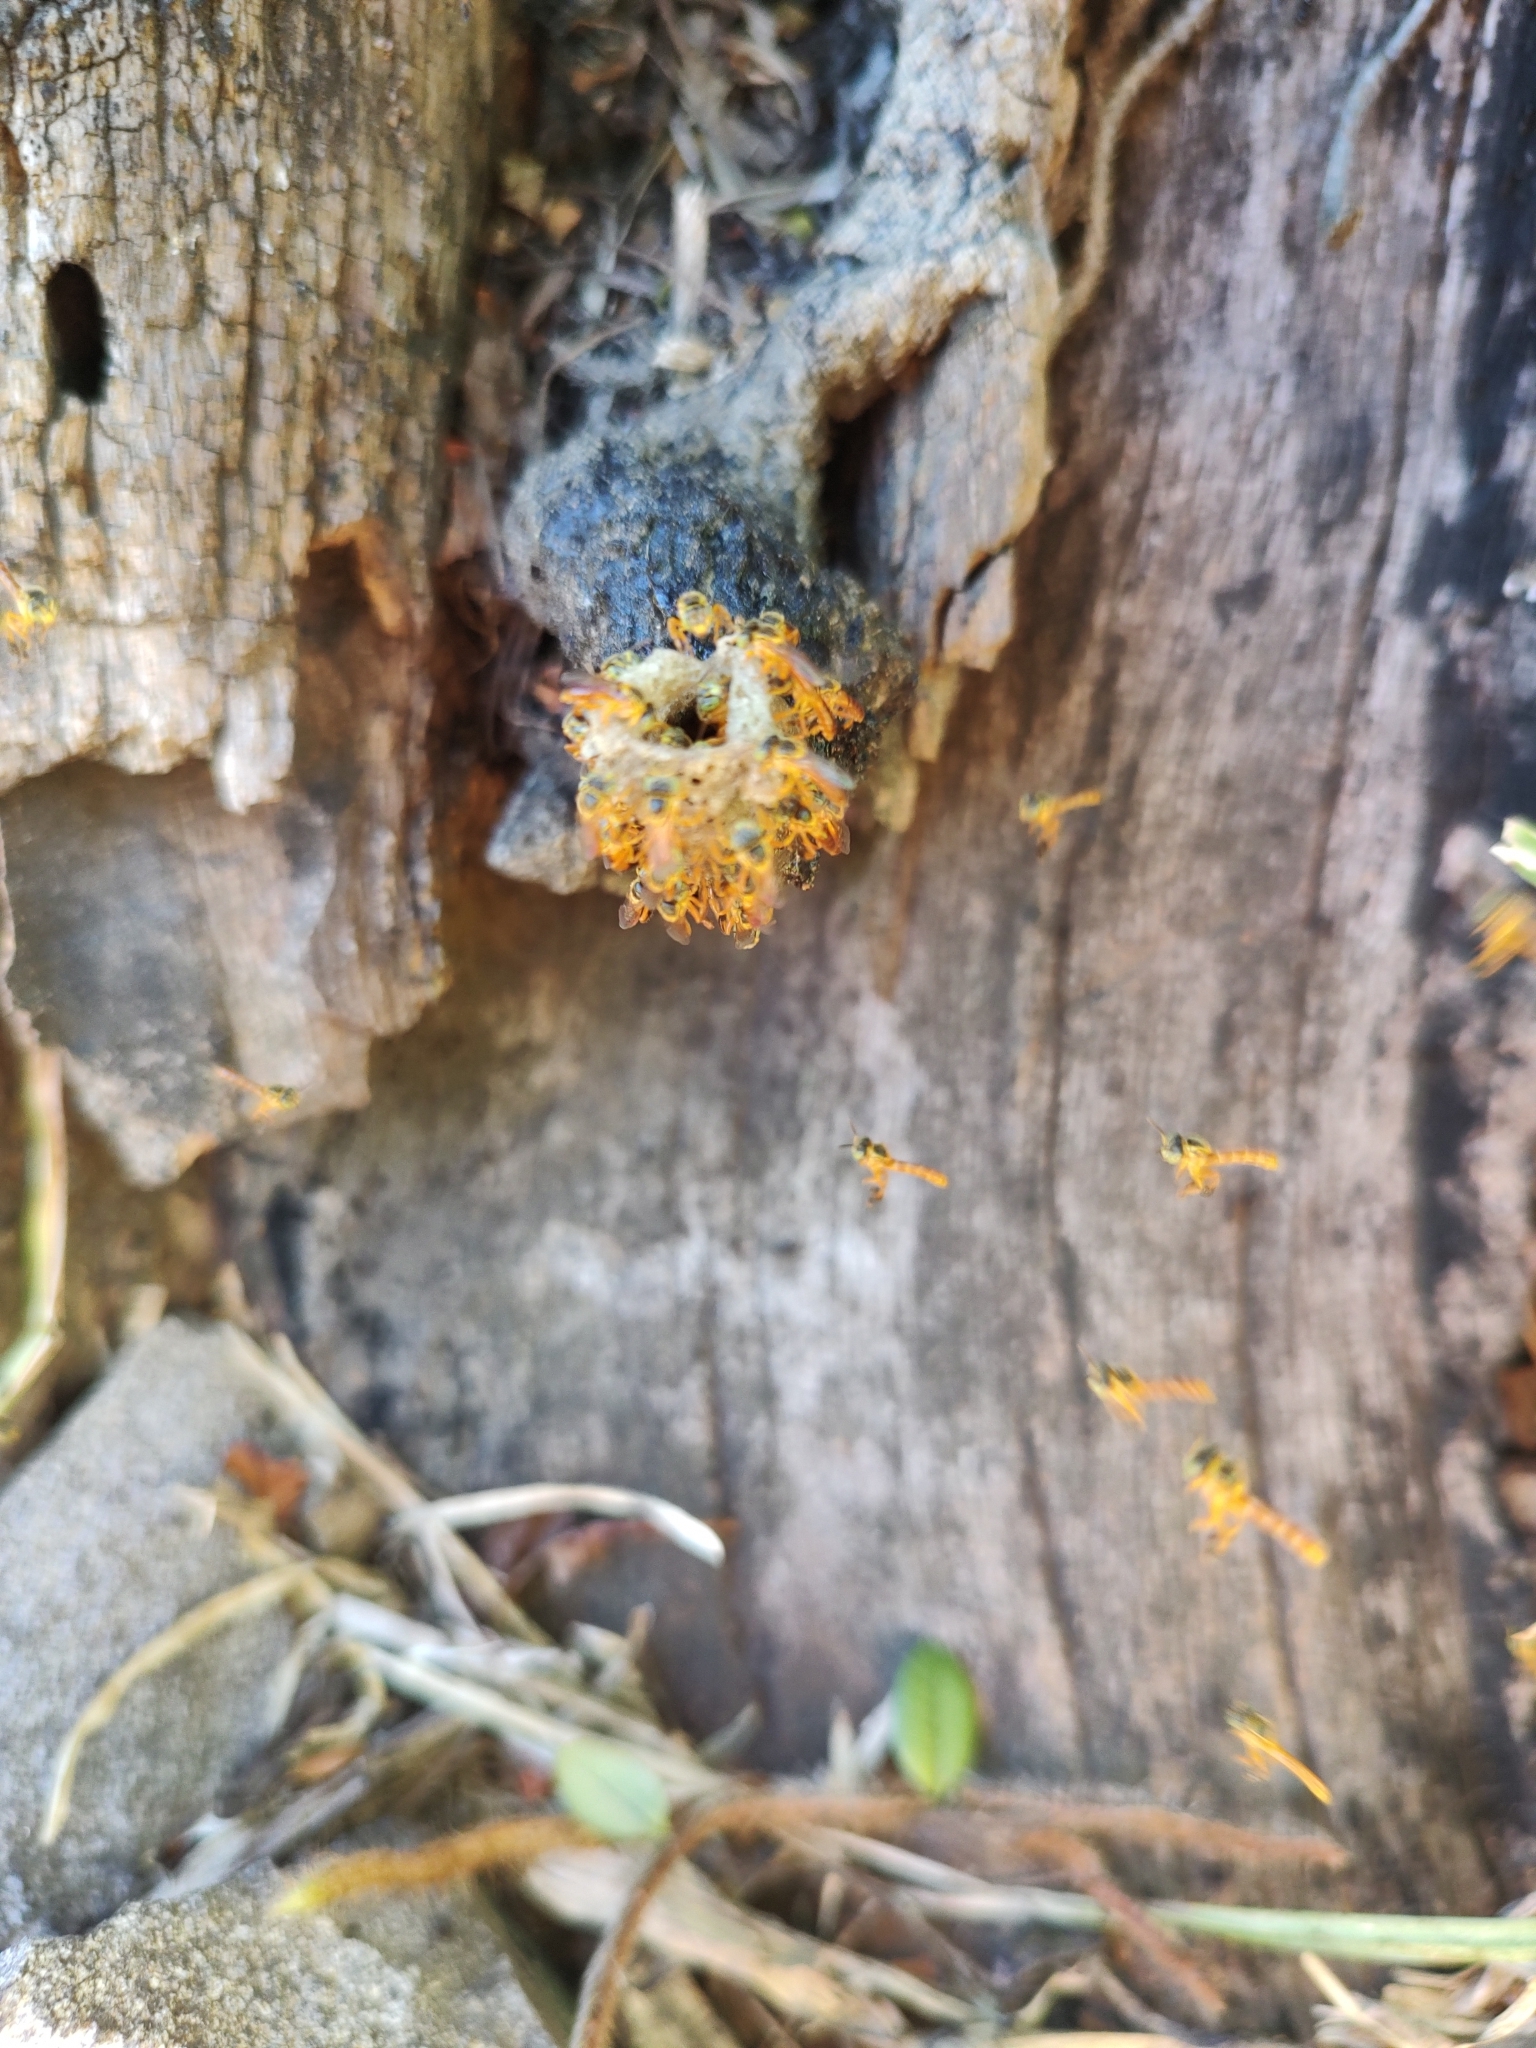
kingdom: Animalia
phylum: Arthropoda
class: Insecta
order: Hymenoptera
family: Apidae
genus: Tetragonisca
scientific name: Tetragonisca fiebrigi
